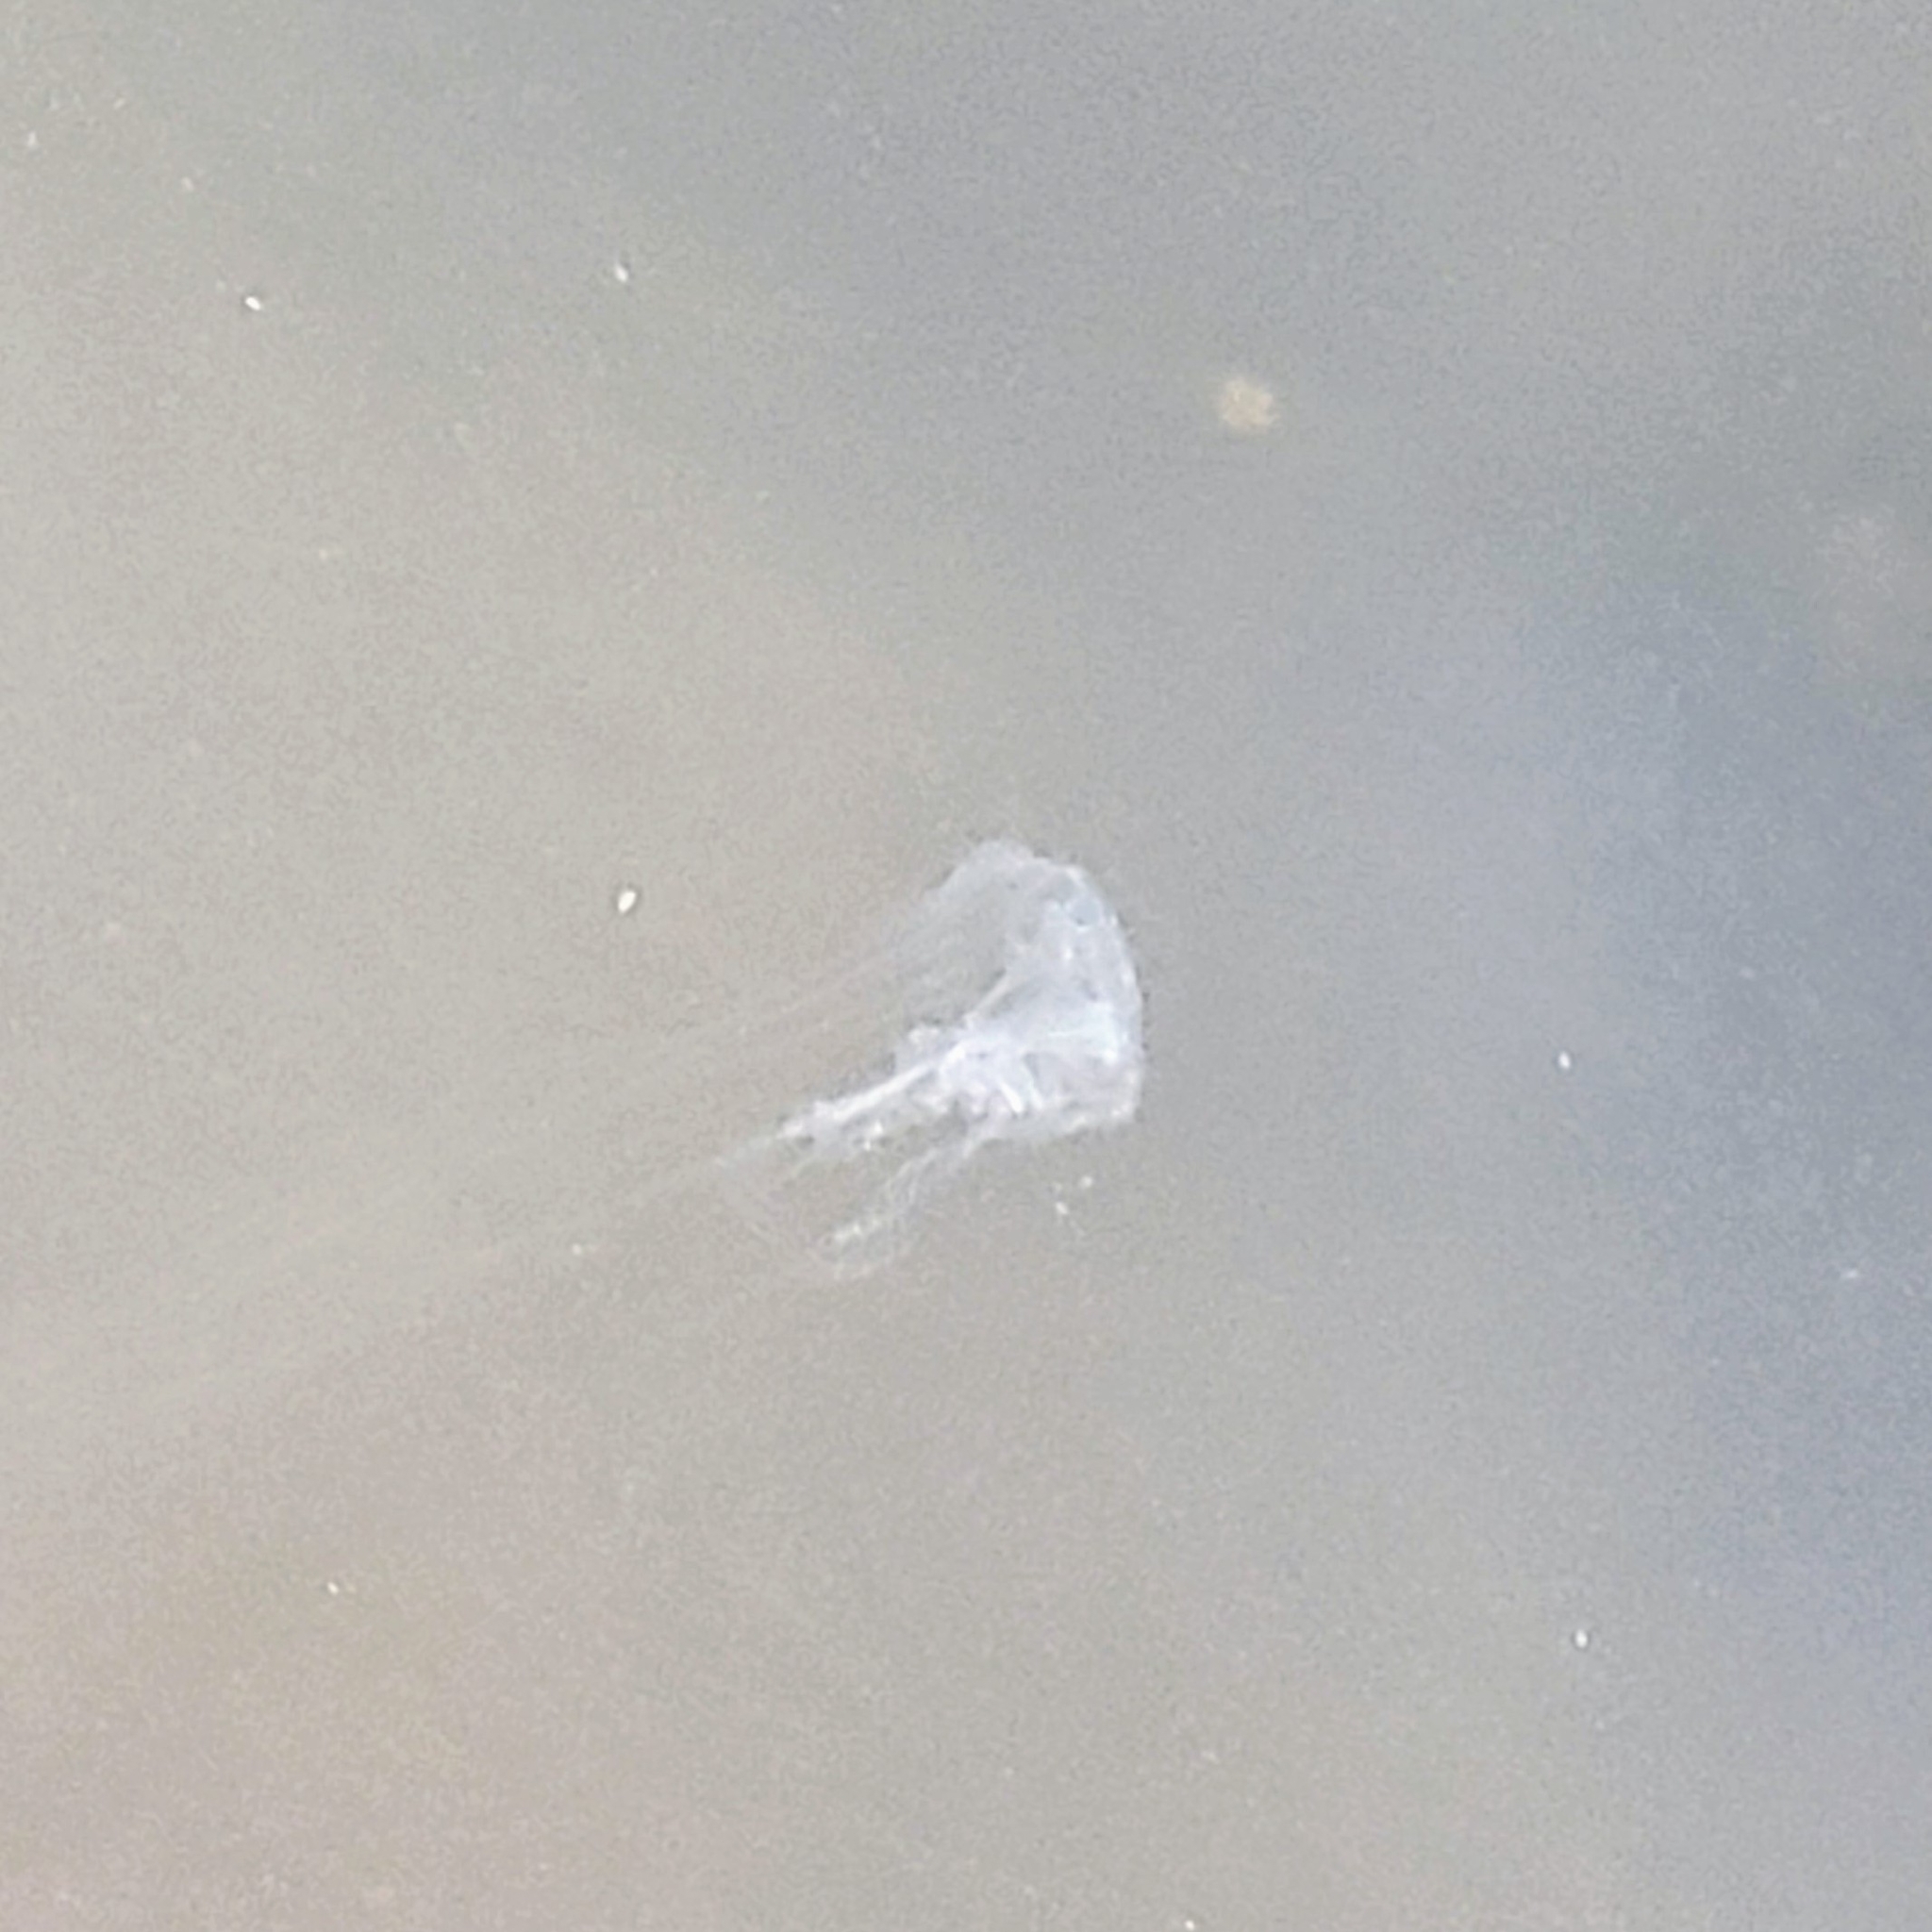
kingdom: Animalia
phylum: Cnidaria
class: Scyphozoa
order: Semaeostomeae
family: Pelagiidae
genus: Chrysaora
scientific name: Chrysaora chesapeakei
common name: Bay nettle
